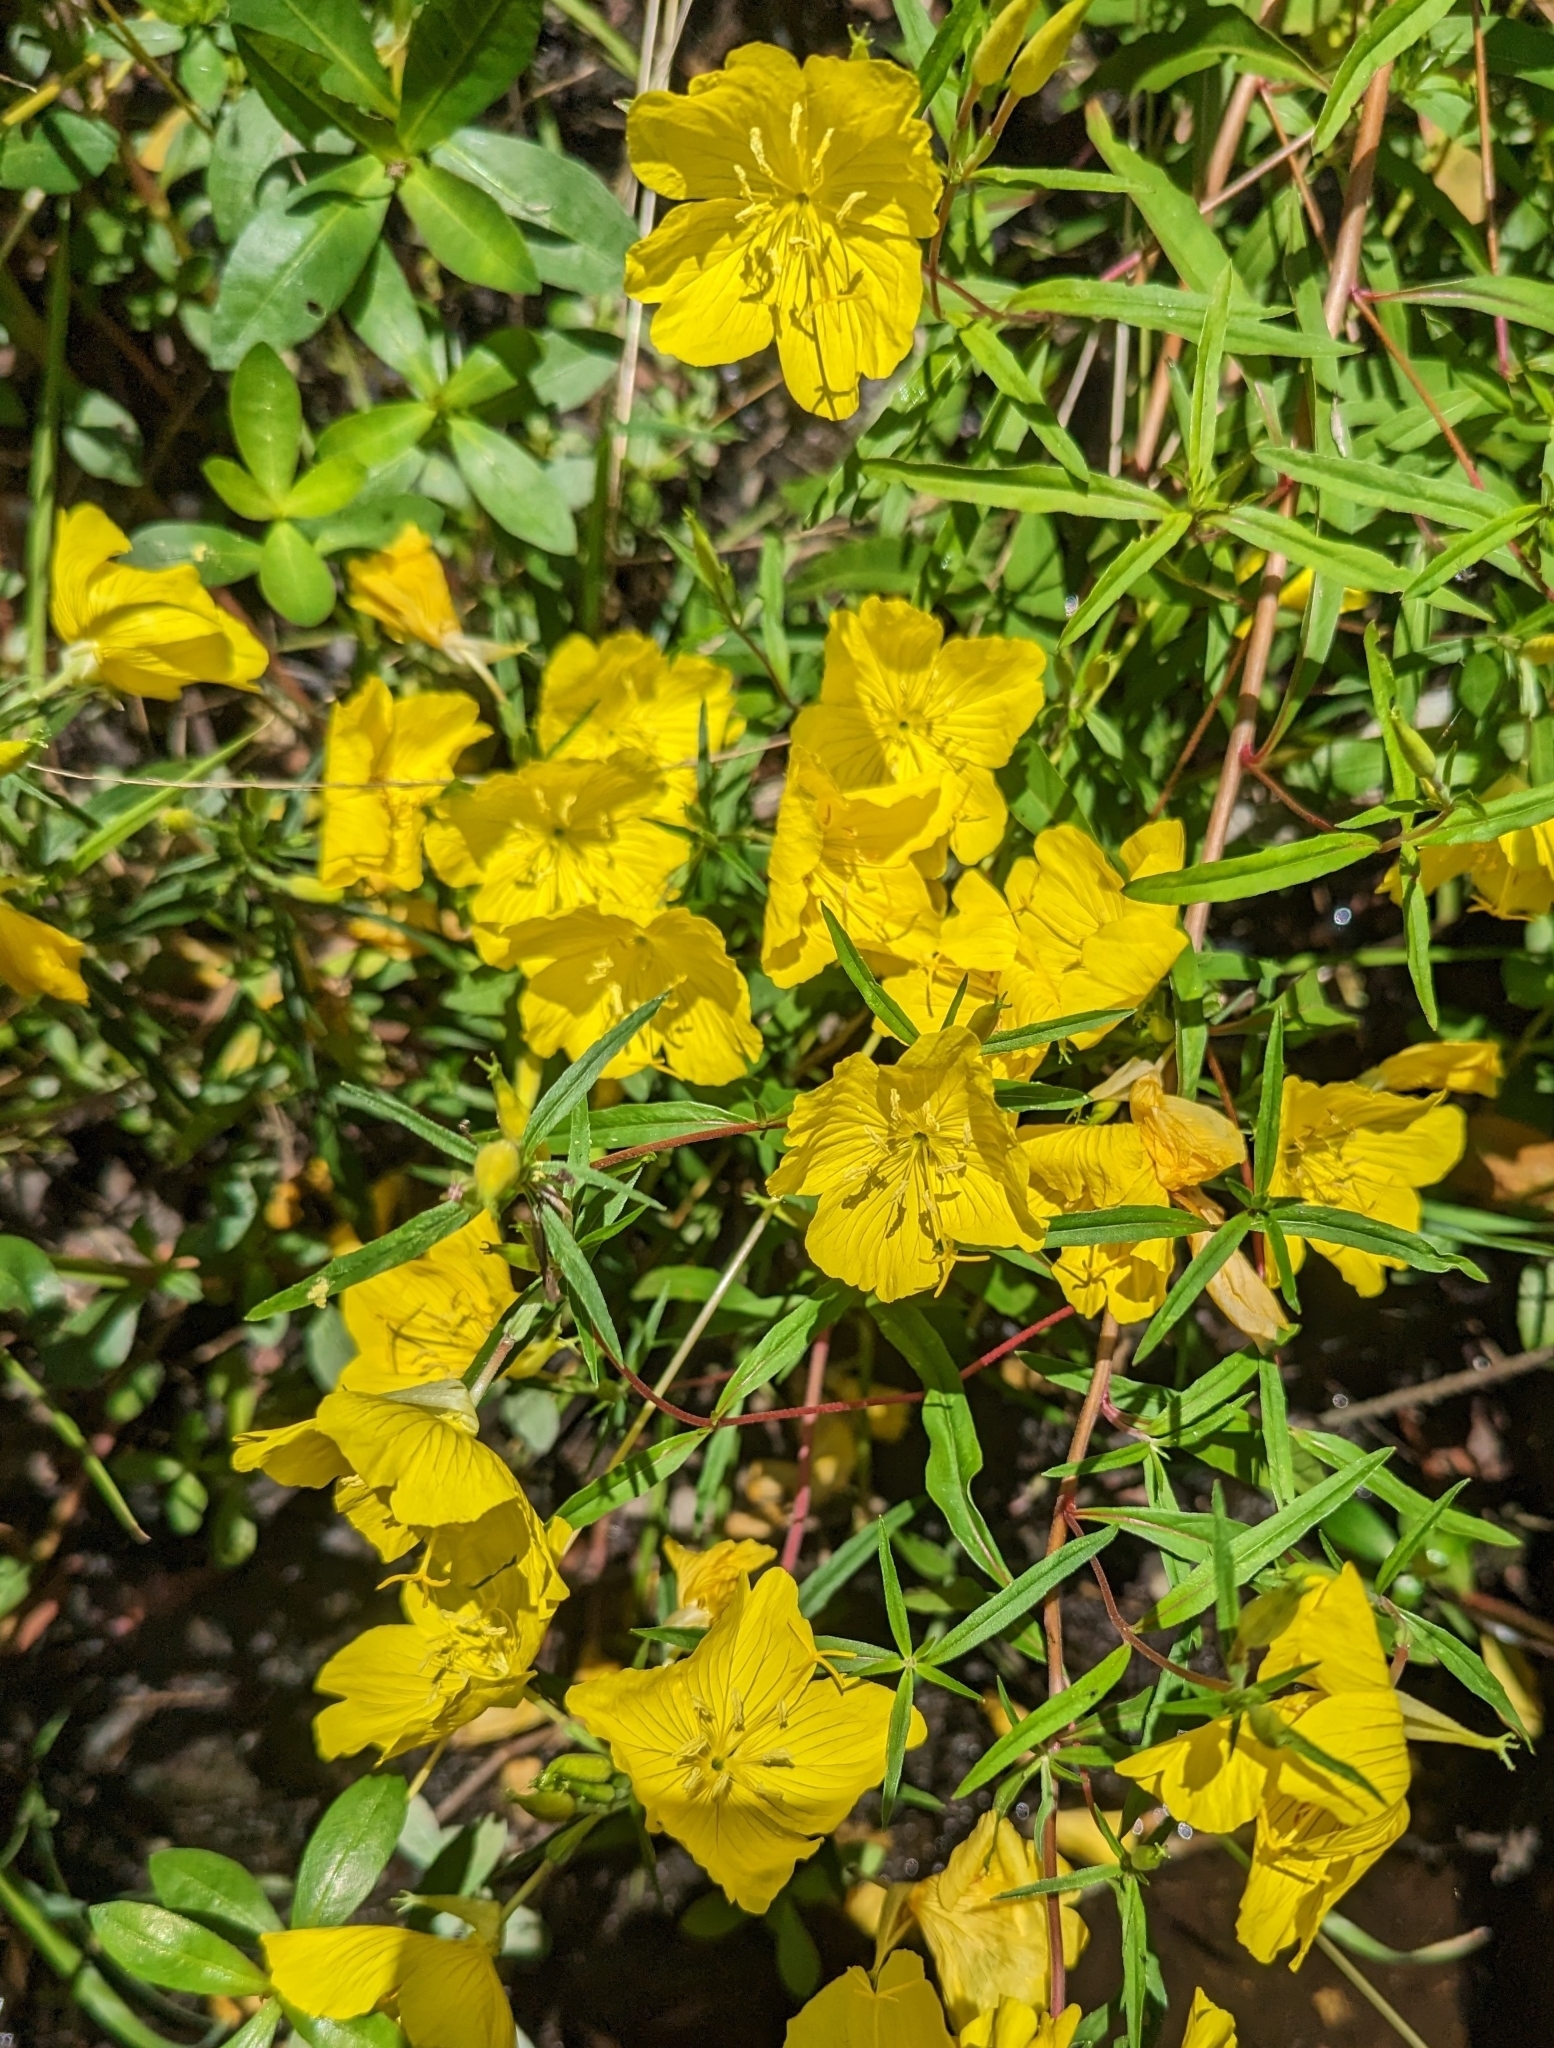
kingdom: Plantae
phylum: Tracheophyta
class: Magnoliopsida
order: Myrtales
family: Onagraceae
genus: Oenothera
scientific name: Oenothera
